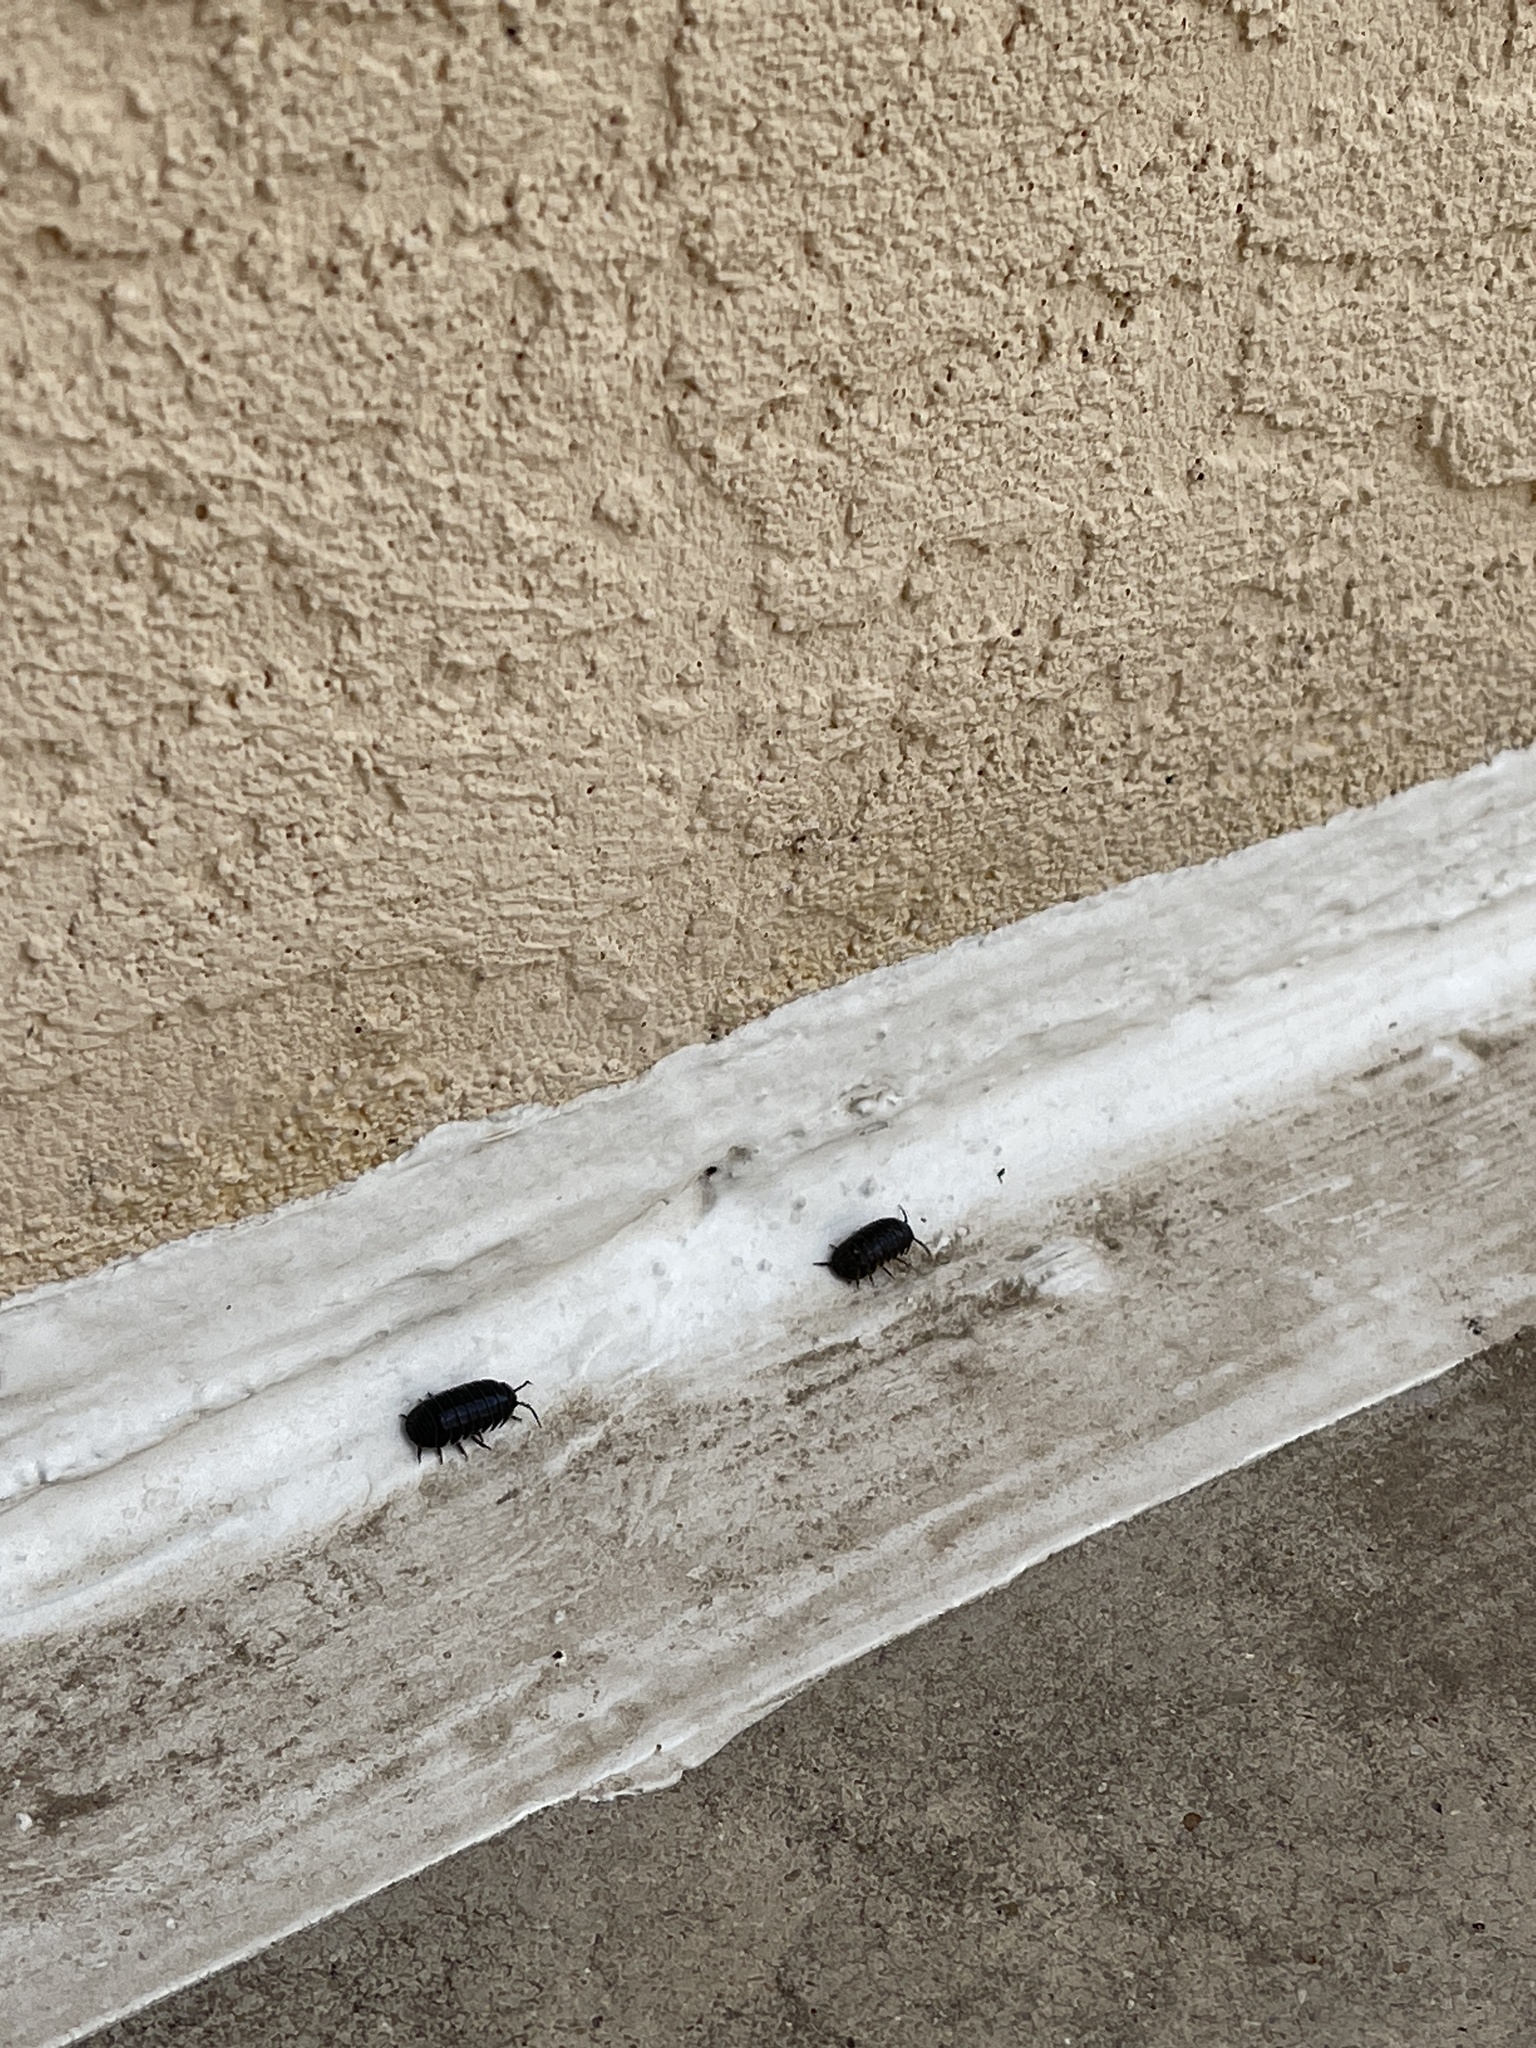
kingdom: Animalia
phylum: Arthropoda
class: Malacostraca
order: Isopoda
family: Armadillidiidae
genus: Armadillidium
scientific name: Armadillidium vulgare
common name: Common pill woodlouse
